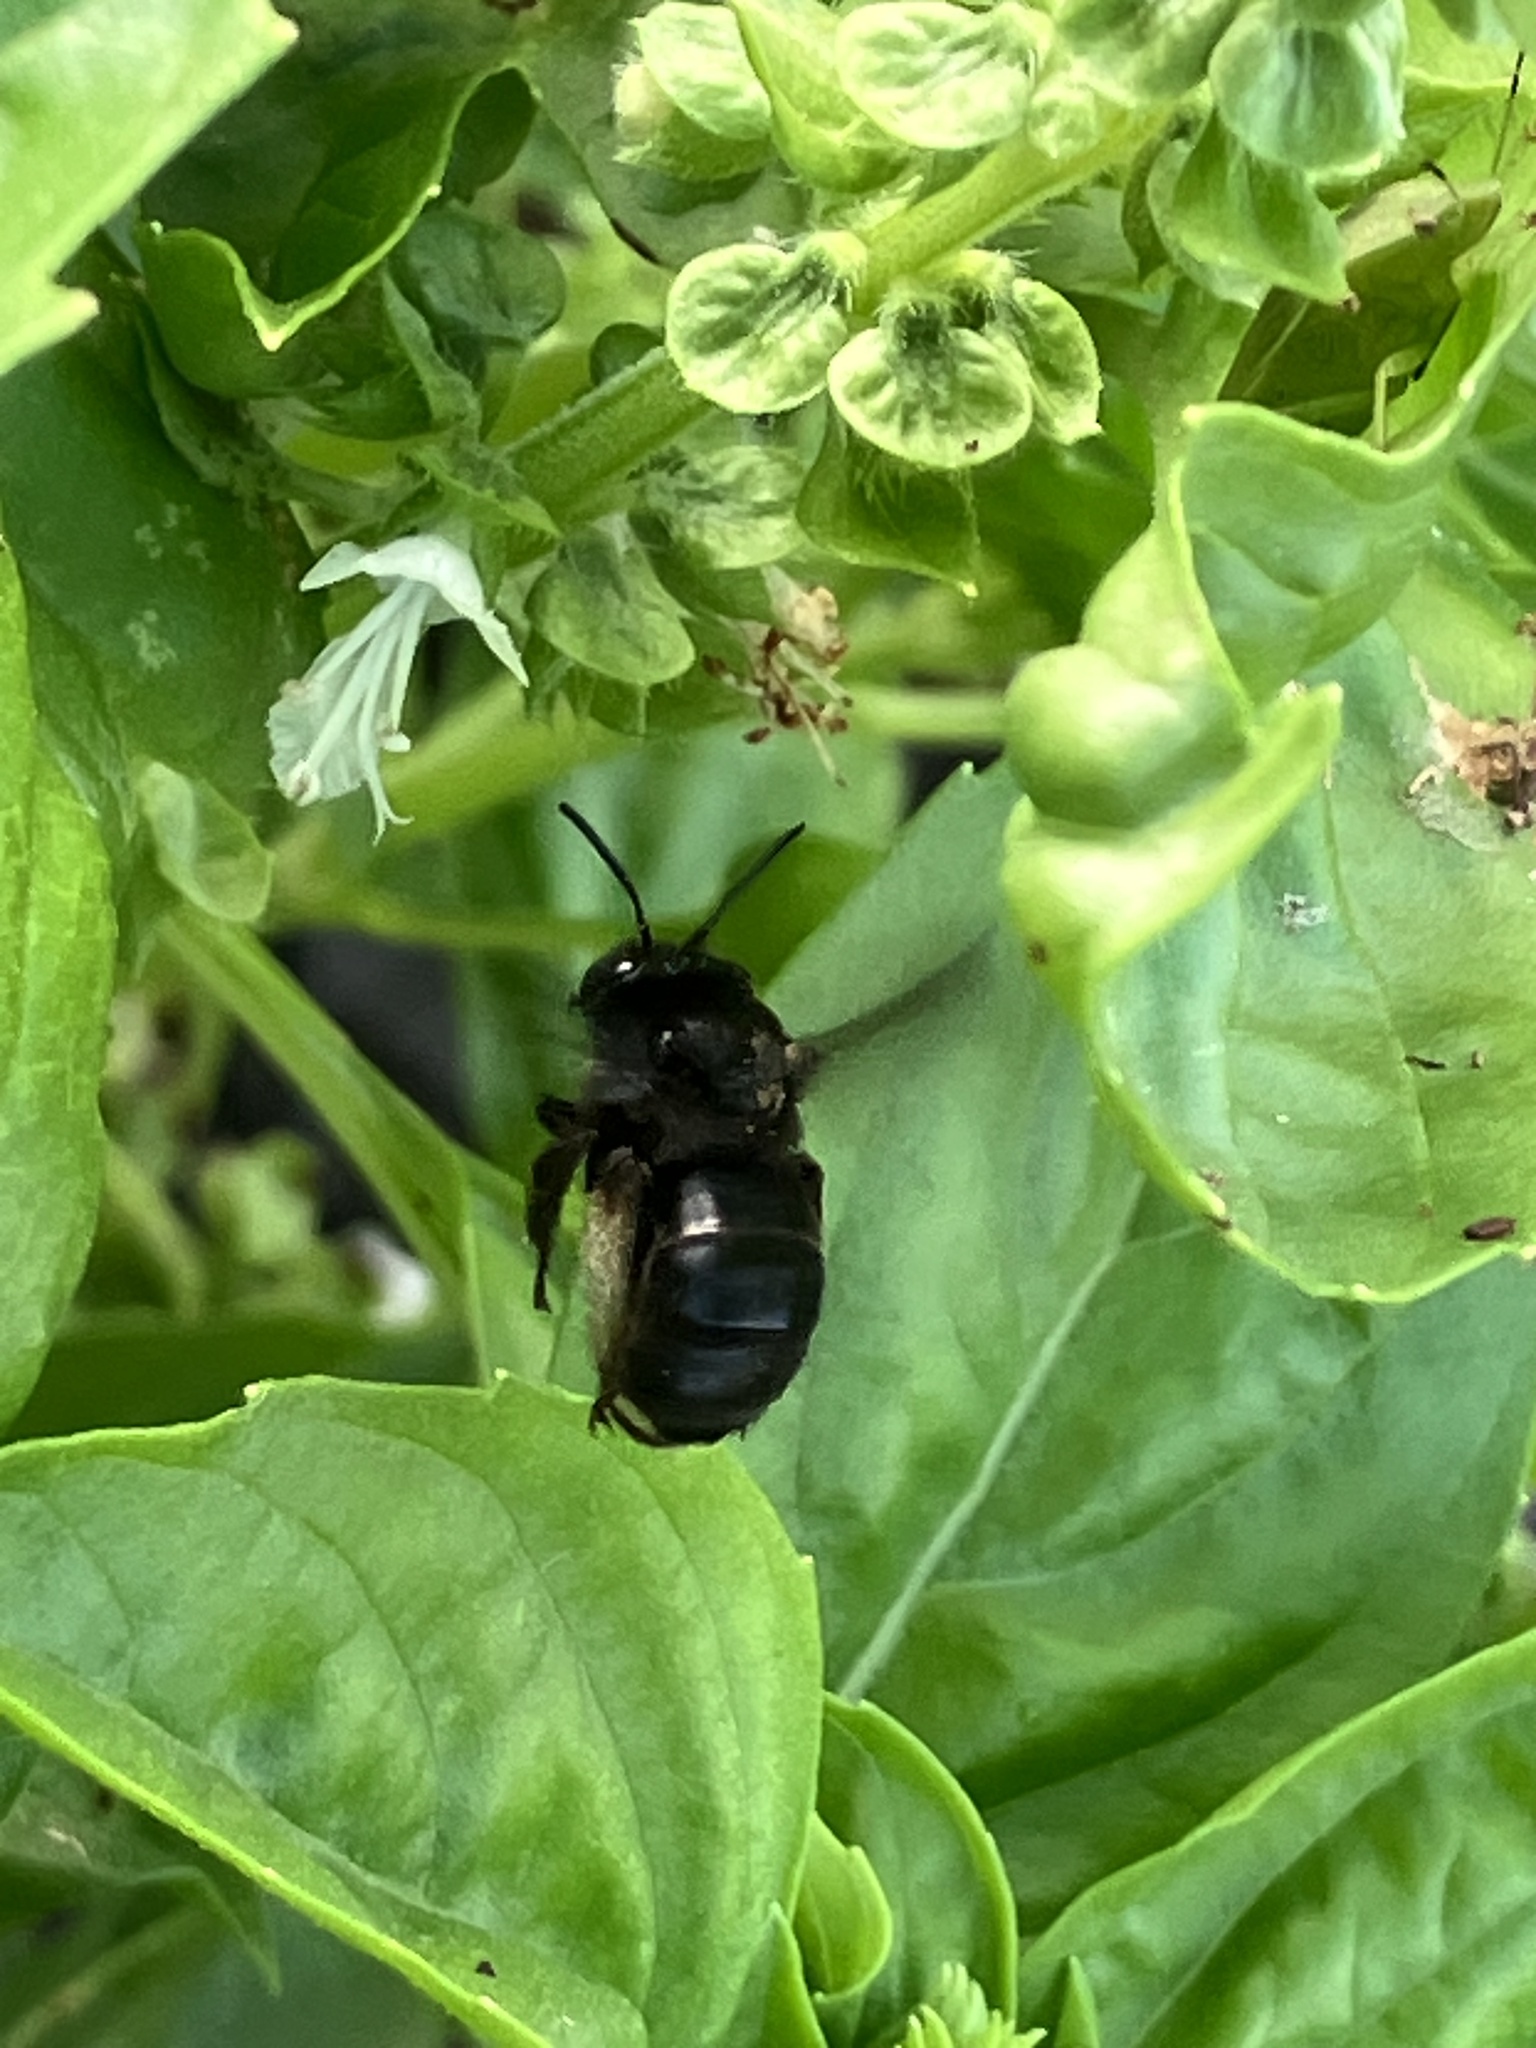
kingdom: Animalia
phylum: Arthropoda
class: Insecta
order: Hymenoptera
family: Apidae
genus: Melissodes
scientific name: Melissodes bimaculatus
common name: Two-spotted long-horned bee
